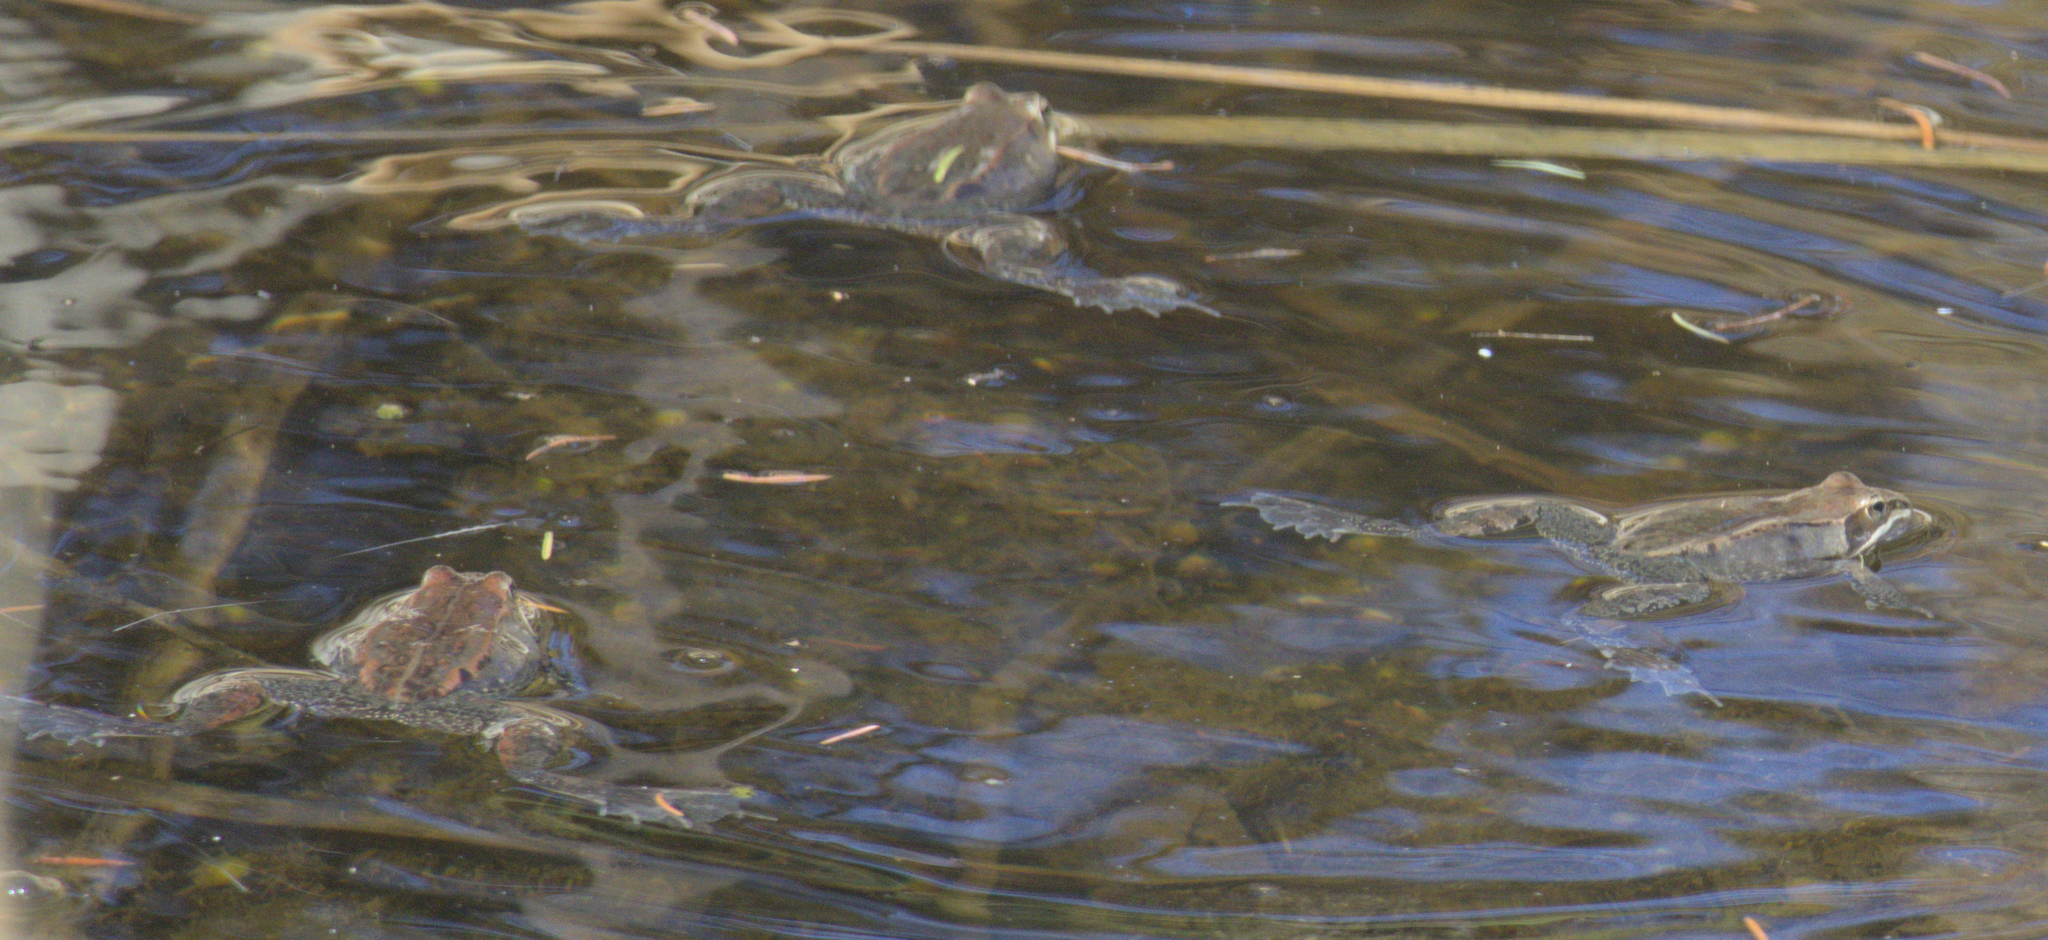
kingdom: Animalia
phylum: Chordata
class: Amphibia
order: Anura
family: Ranidae
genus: Lithobates
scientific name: Lithobates sylvaticus
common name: Wood frog
